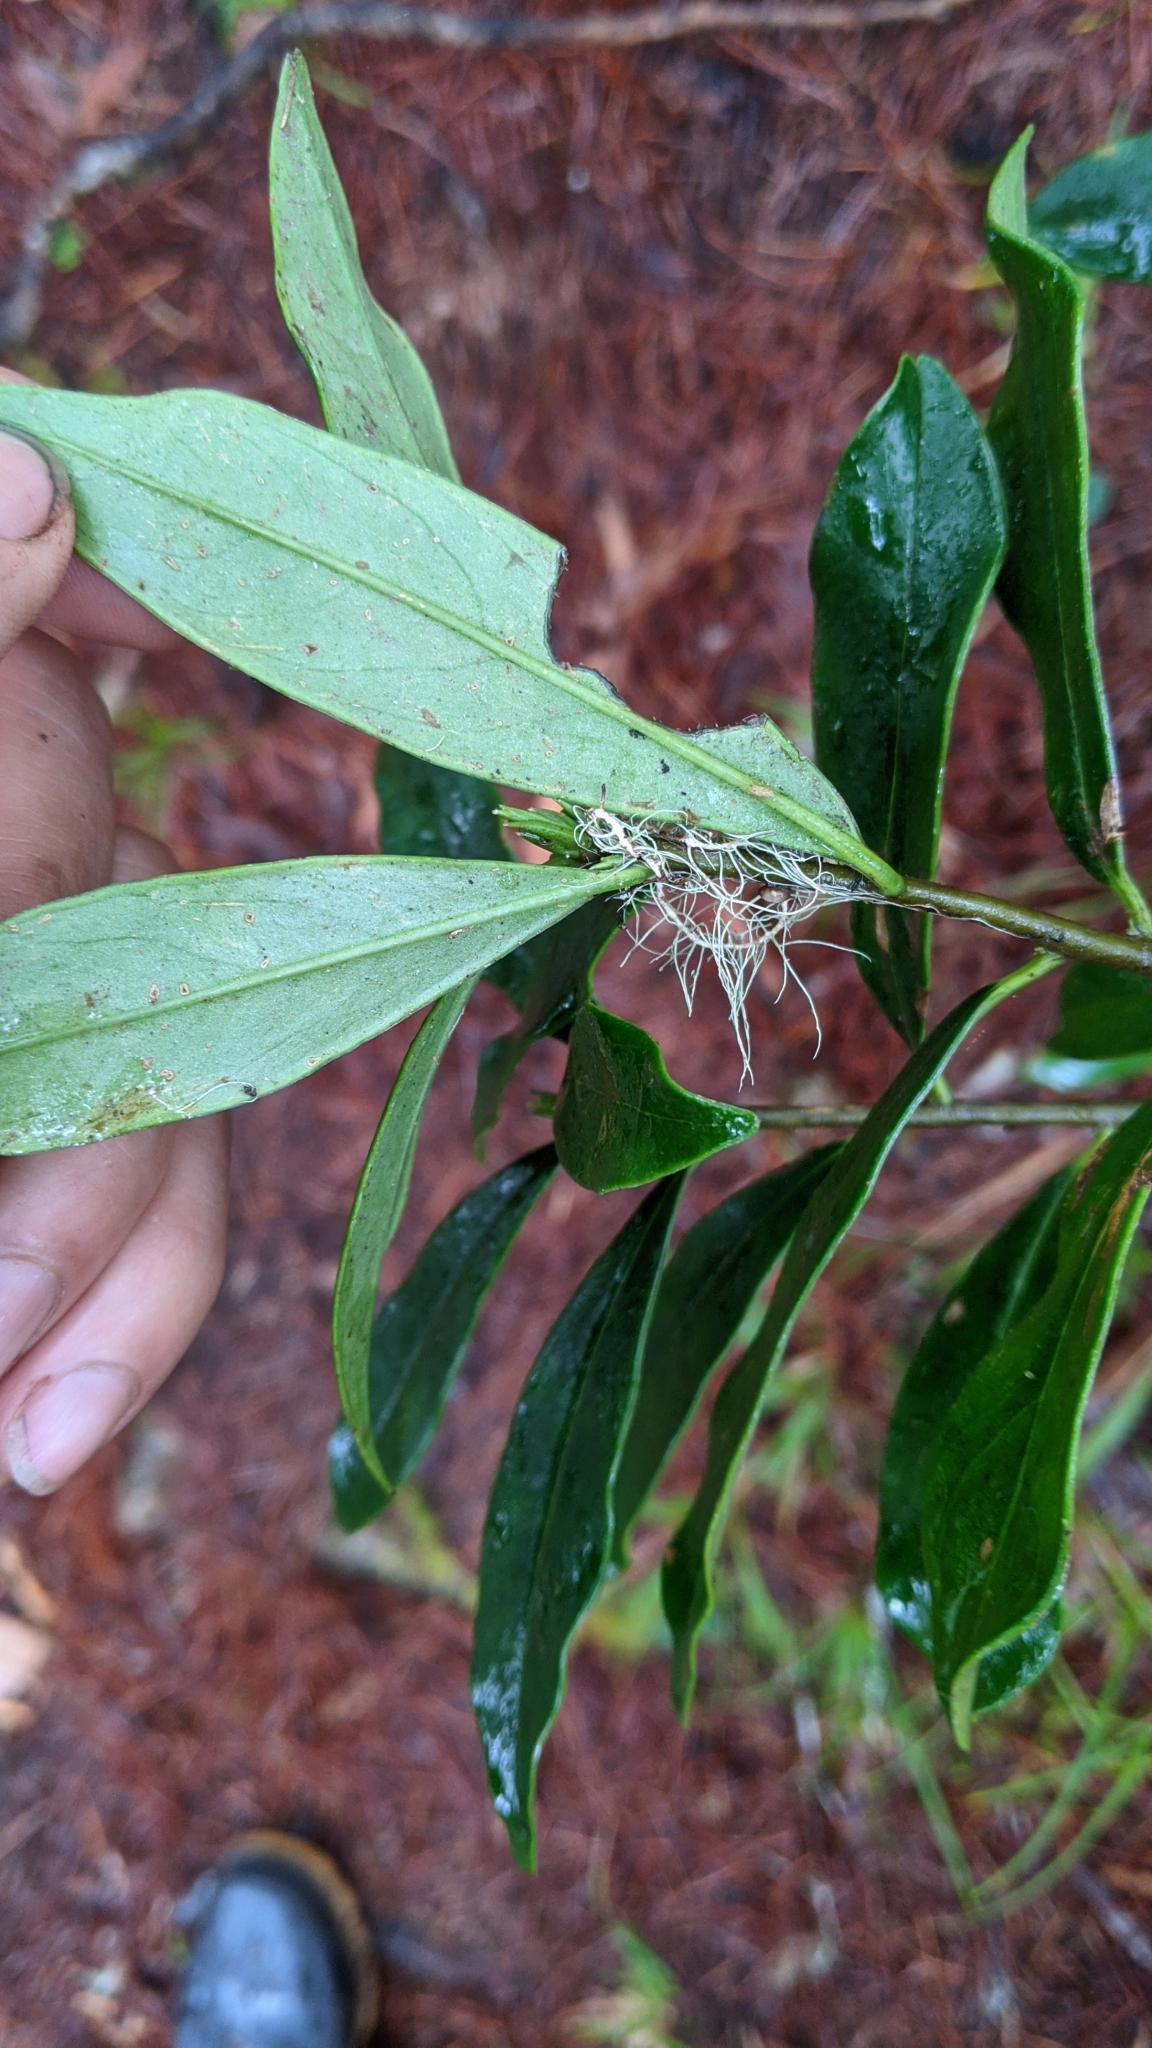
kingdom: Plantae
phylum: Tracheophyta
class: Magnoliopsida
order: Malvales
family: Thymelaeaceae
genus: Daphne
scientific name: Daphne arisanensis
